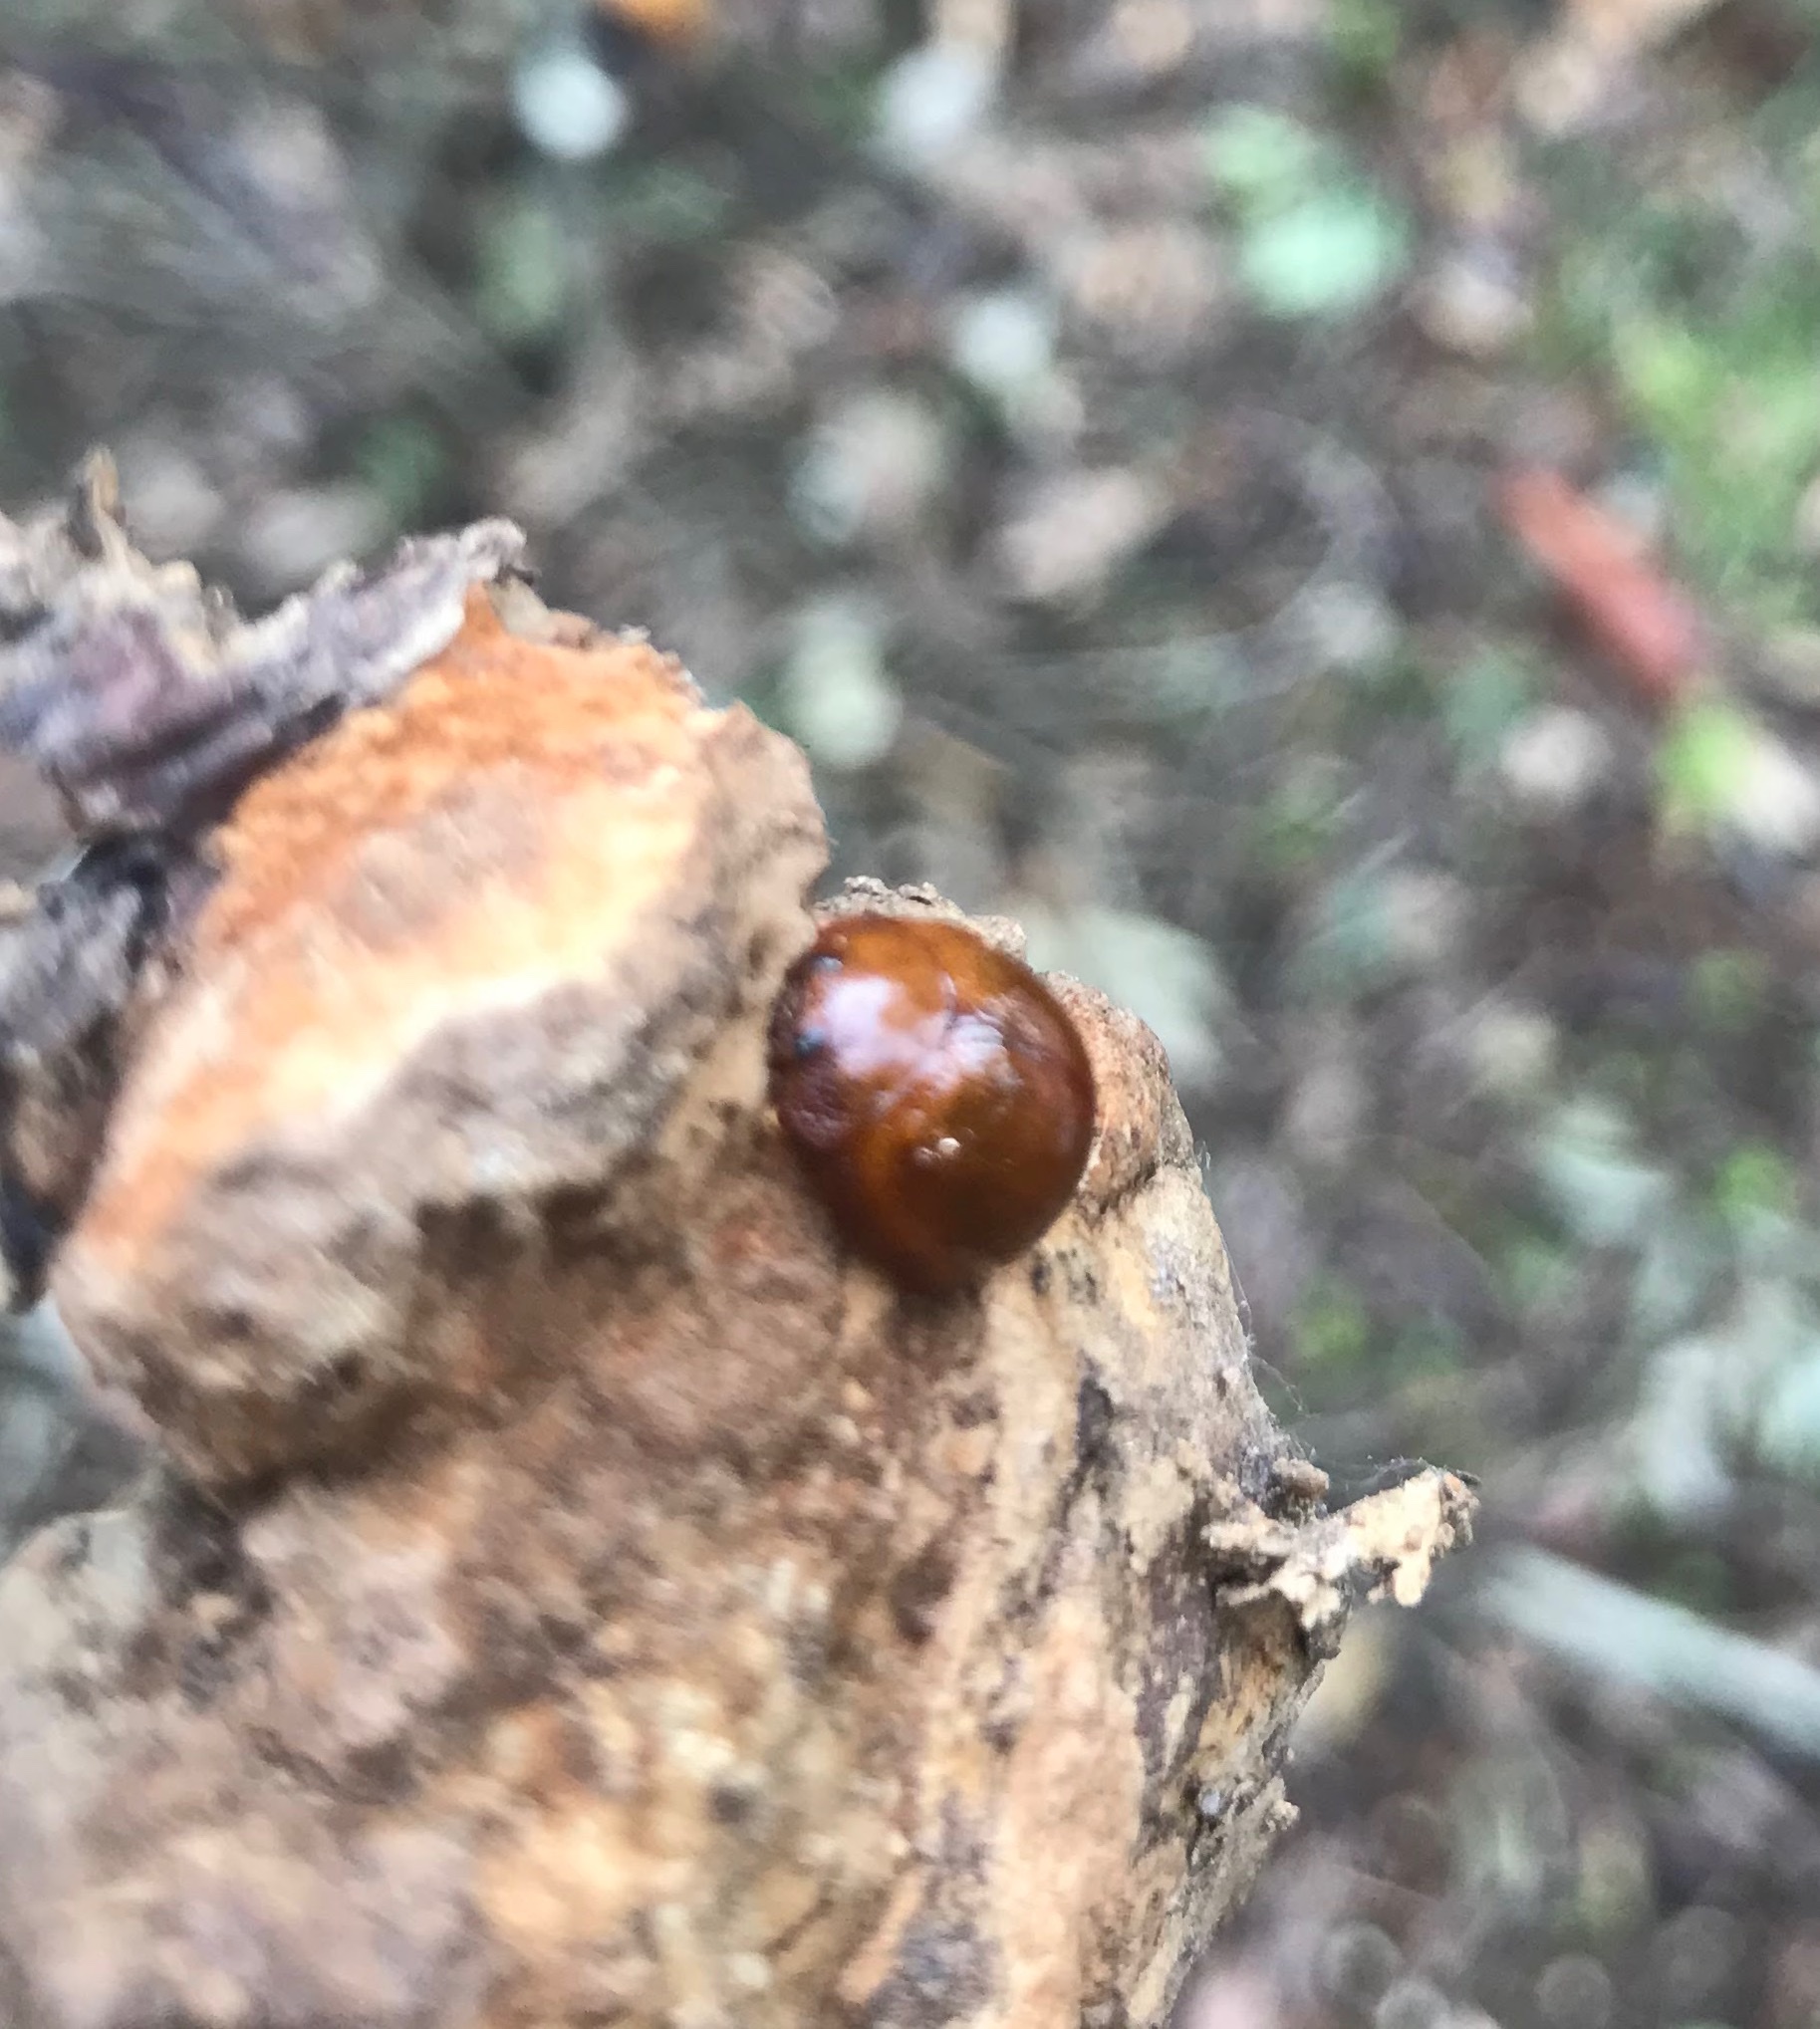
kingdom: Animalia
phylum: Arthropoda
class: Insecta
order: Coleoptera
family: Chrysomelidae
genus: Dicranosterna
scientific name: Dicranosterna
